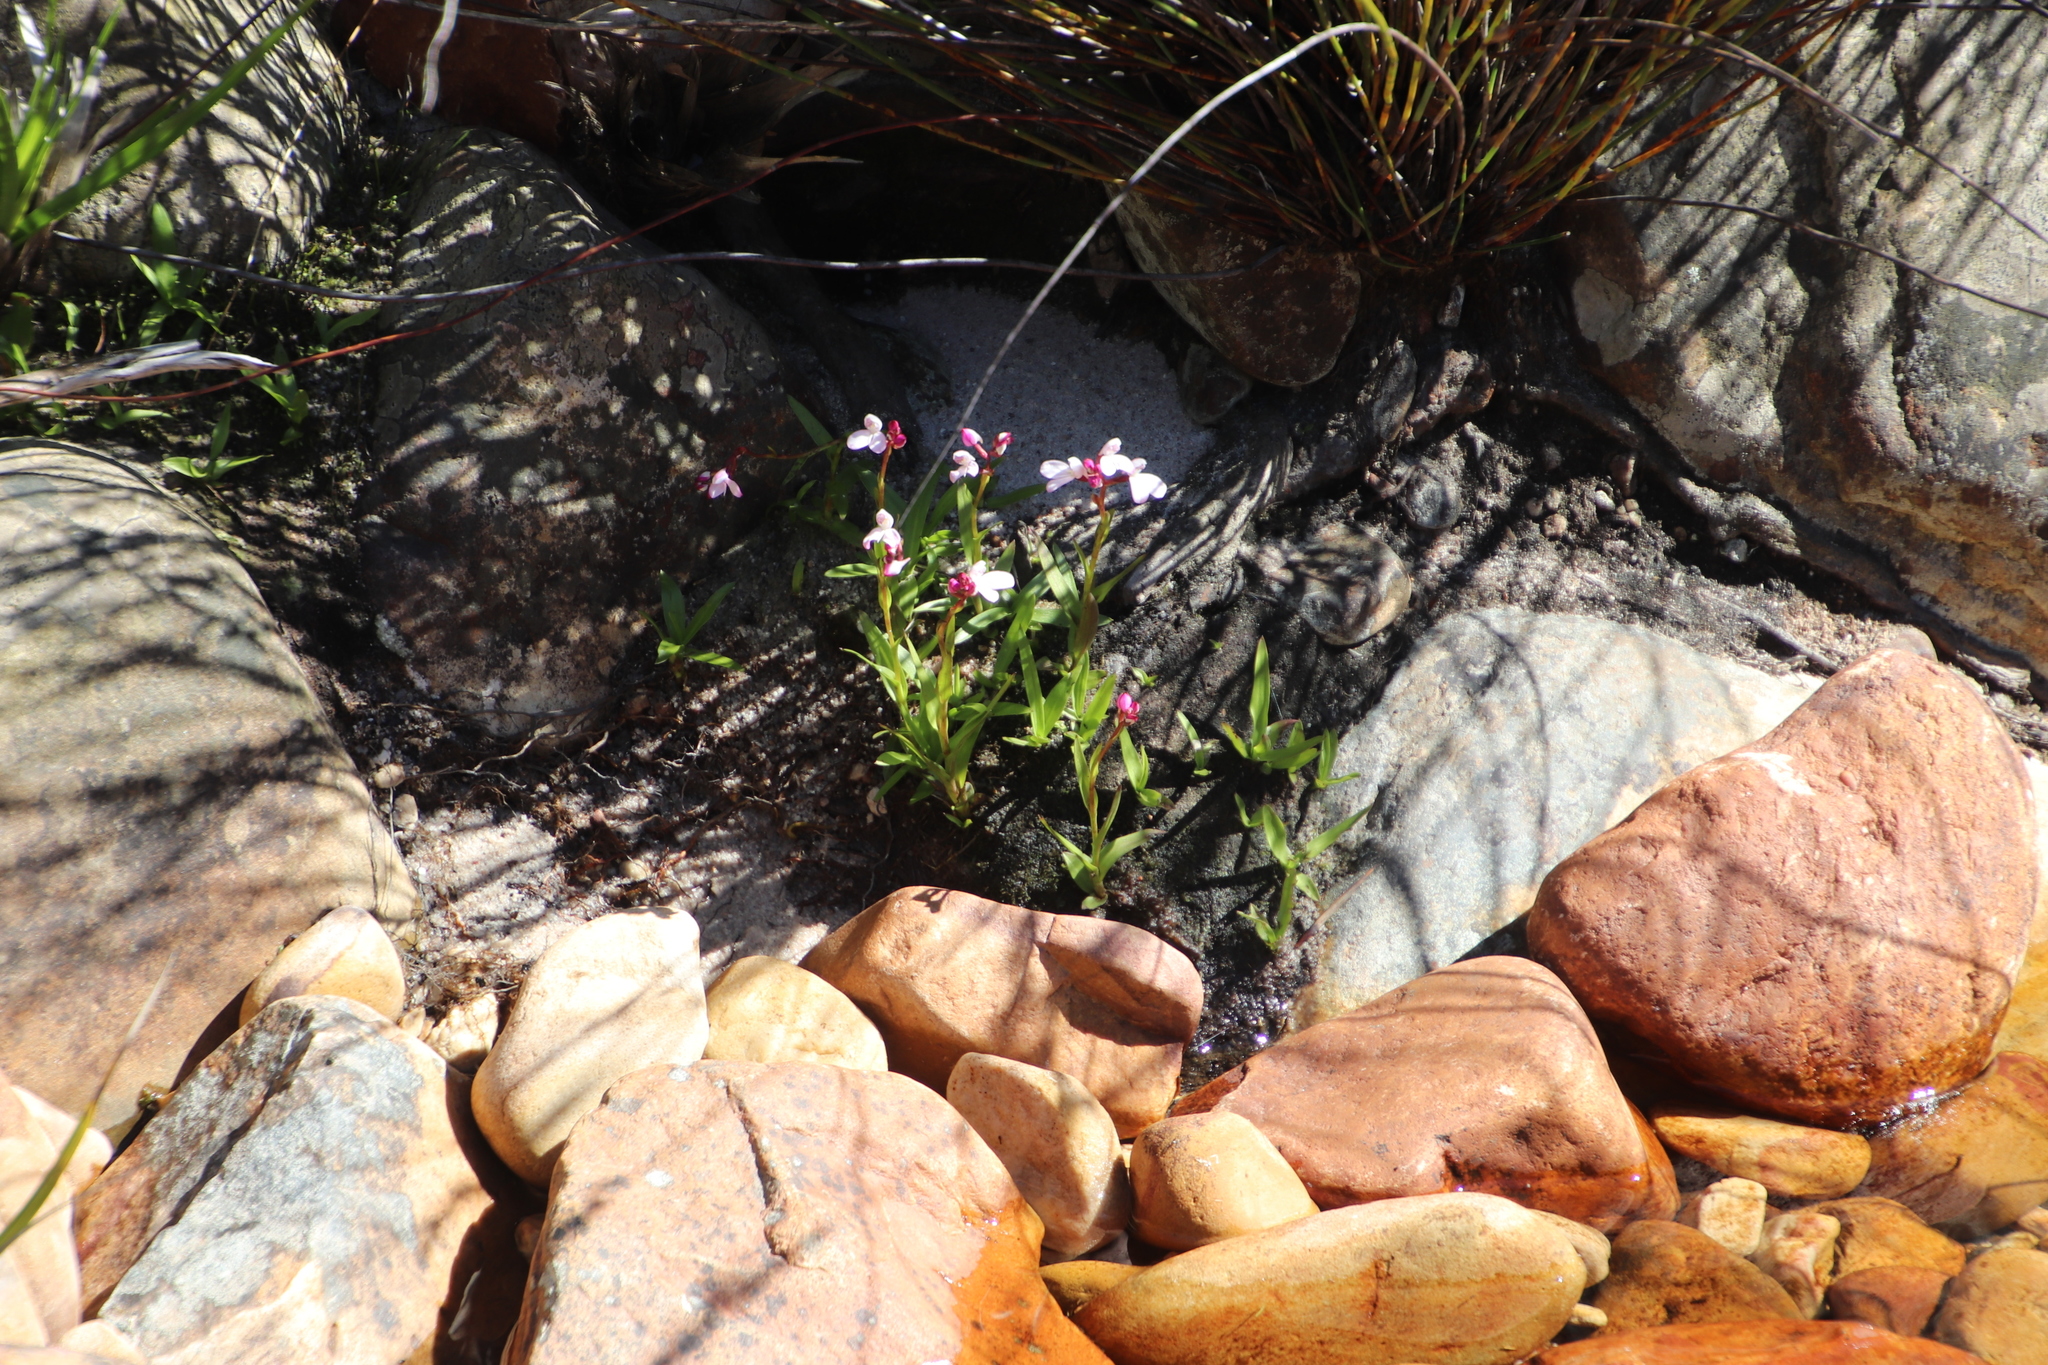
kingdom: Plantae
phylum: Tracheophyta
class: Liliopsida
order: Asparagales
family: Orchidaceae
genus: Disa
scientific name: Disa caulescens
